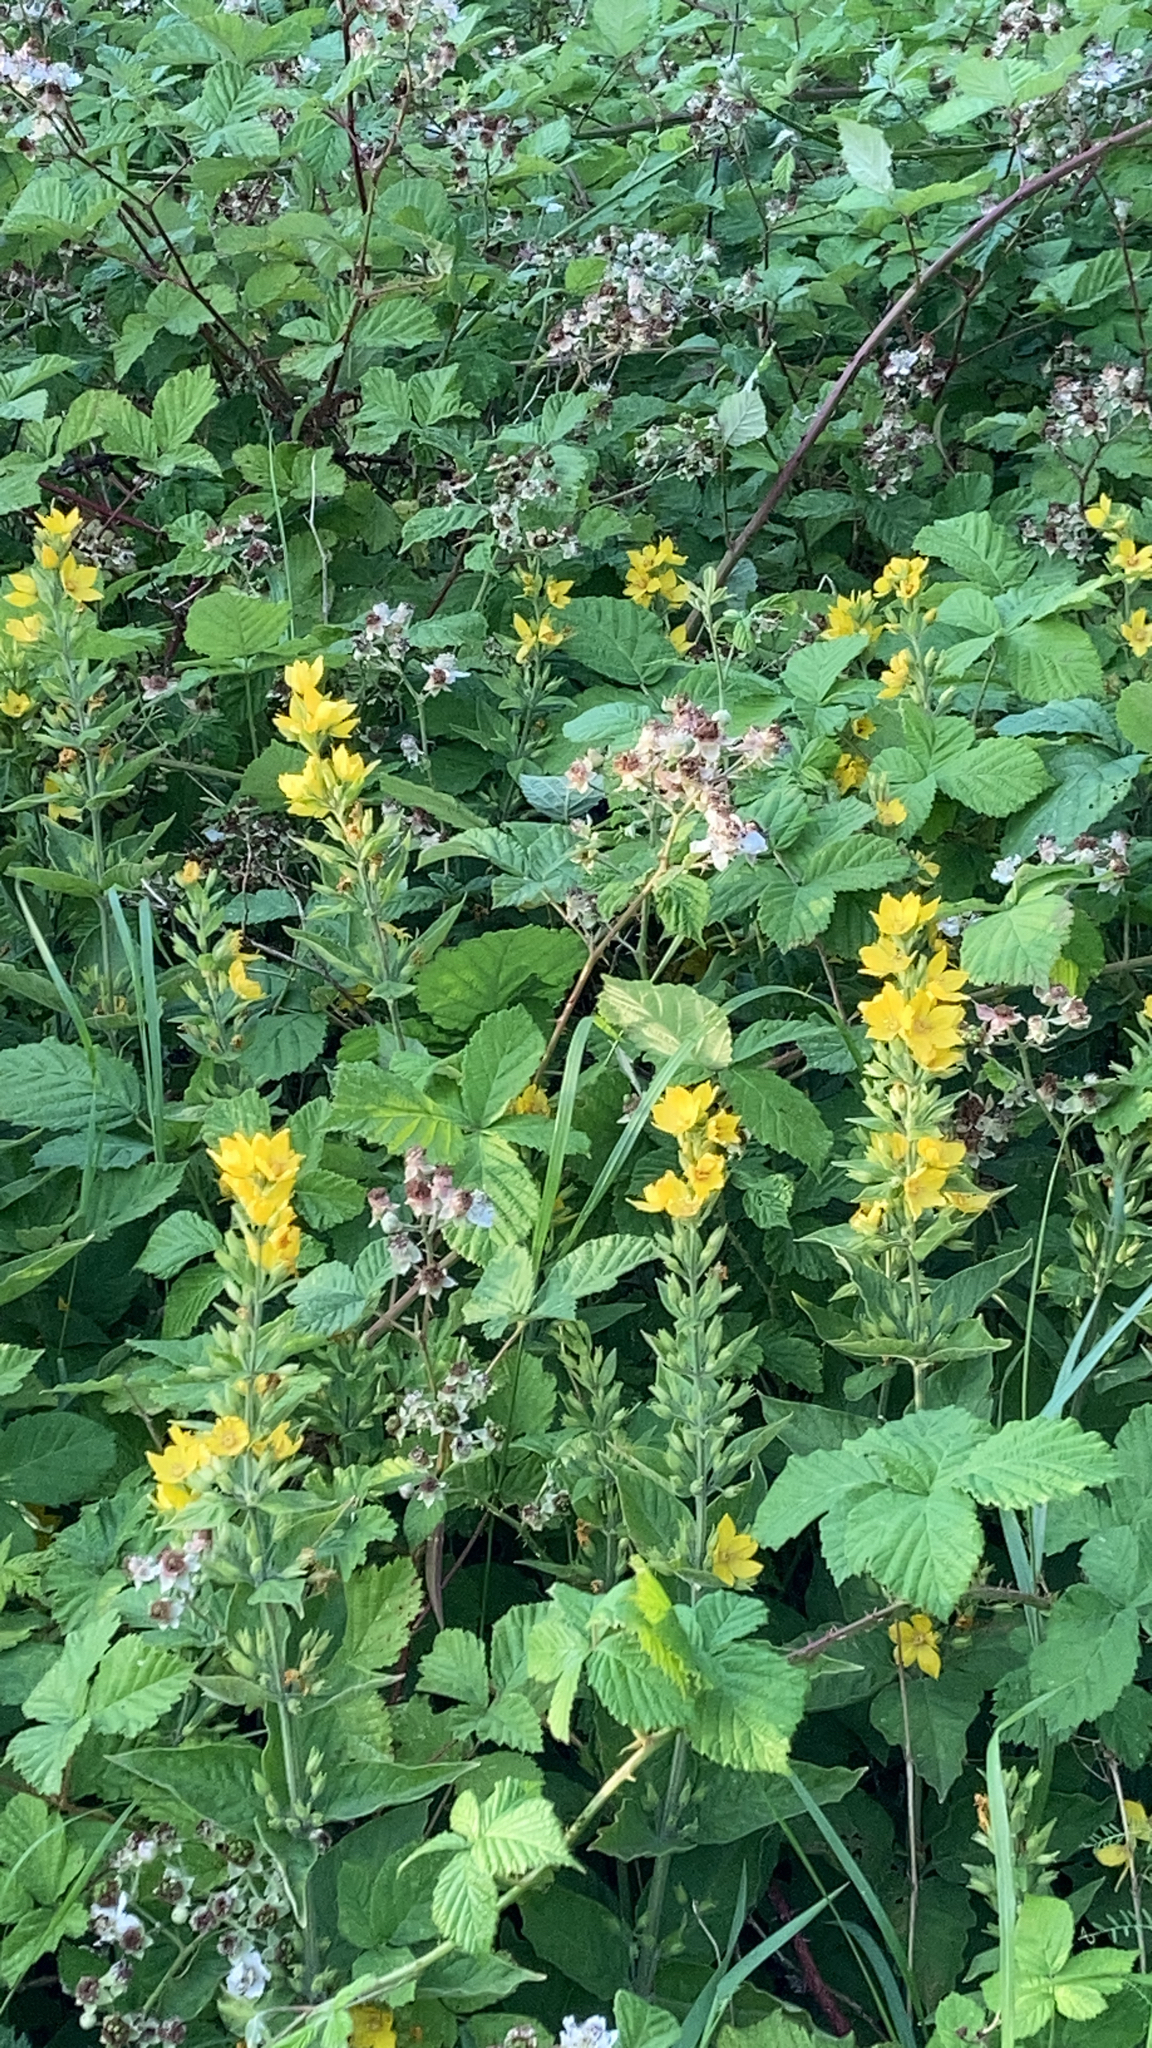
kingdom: Plantae
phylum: Tracheophyta
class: Magnoliopsida
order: Ericales
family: Primulaceae
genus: Lysimachia
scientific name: Lysimachia punctata
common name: Dotted loosestrife
